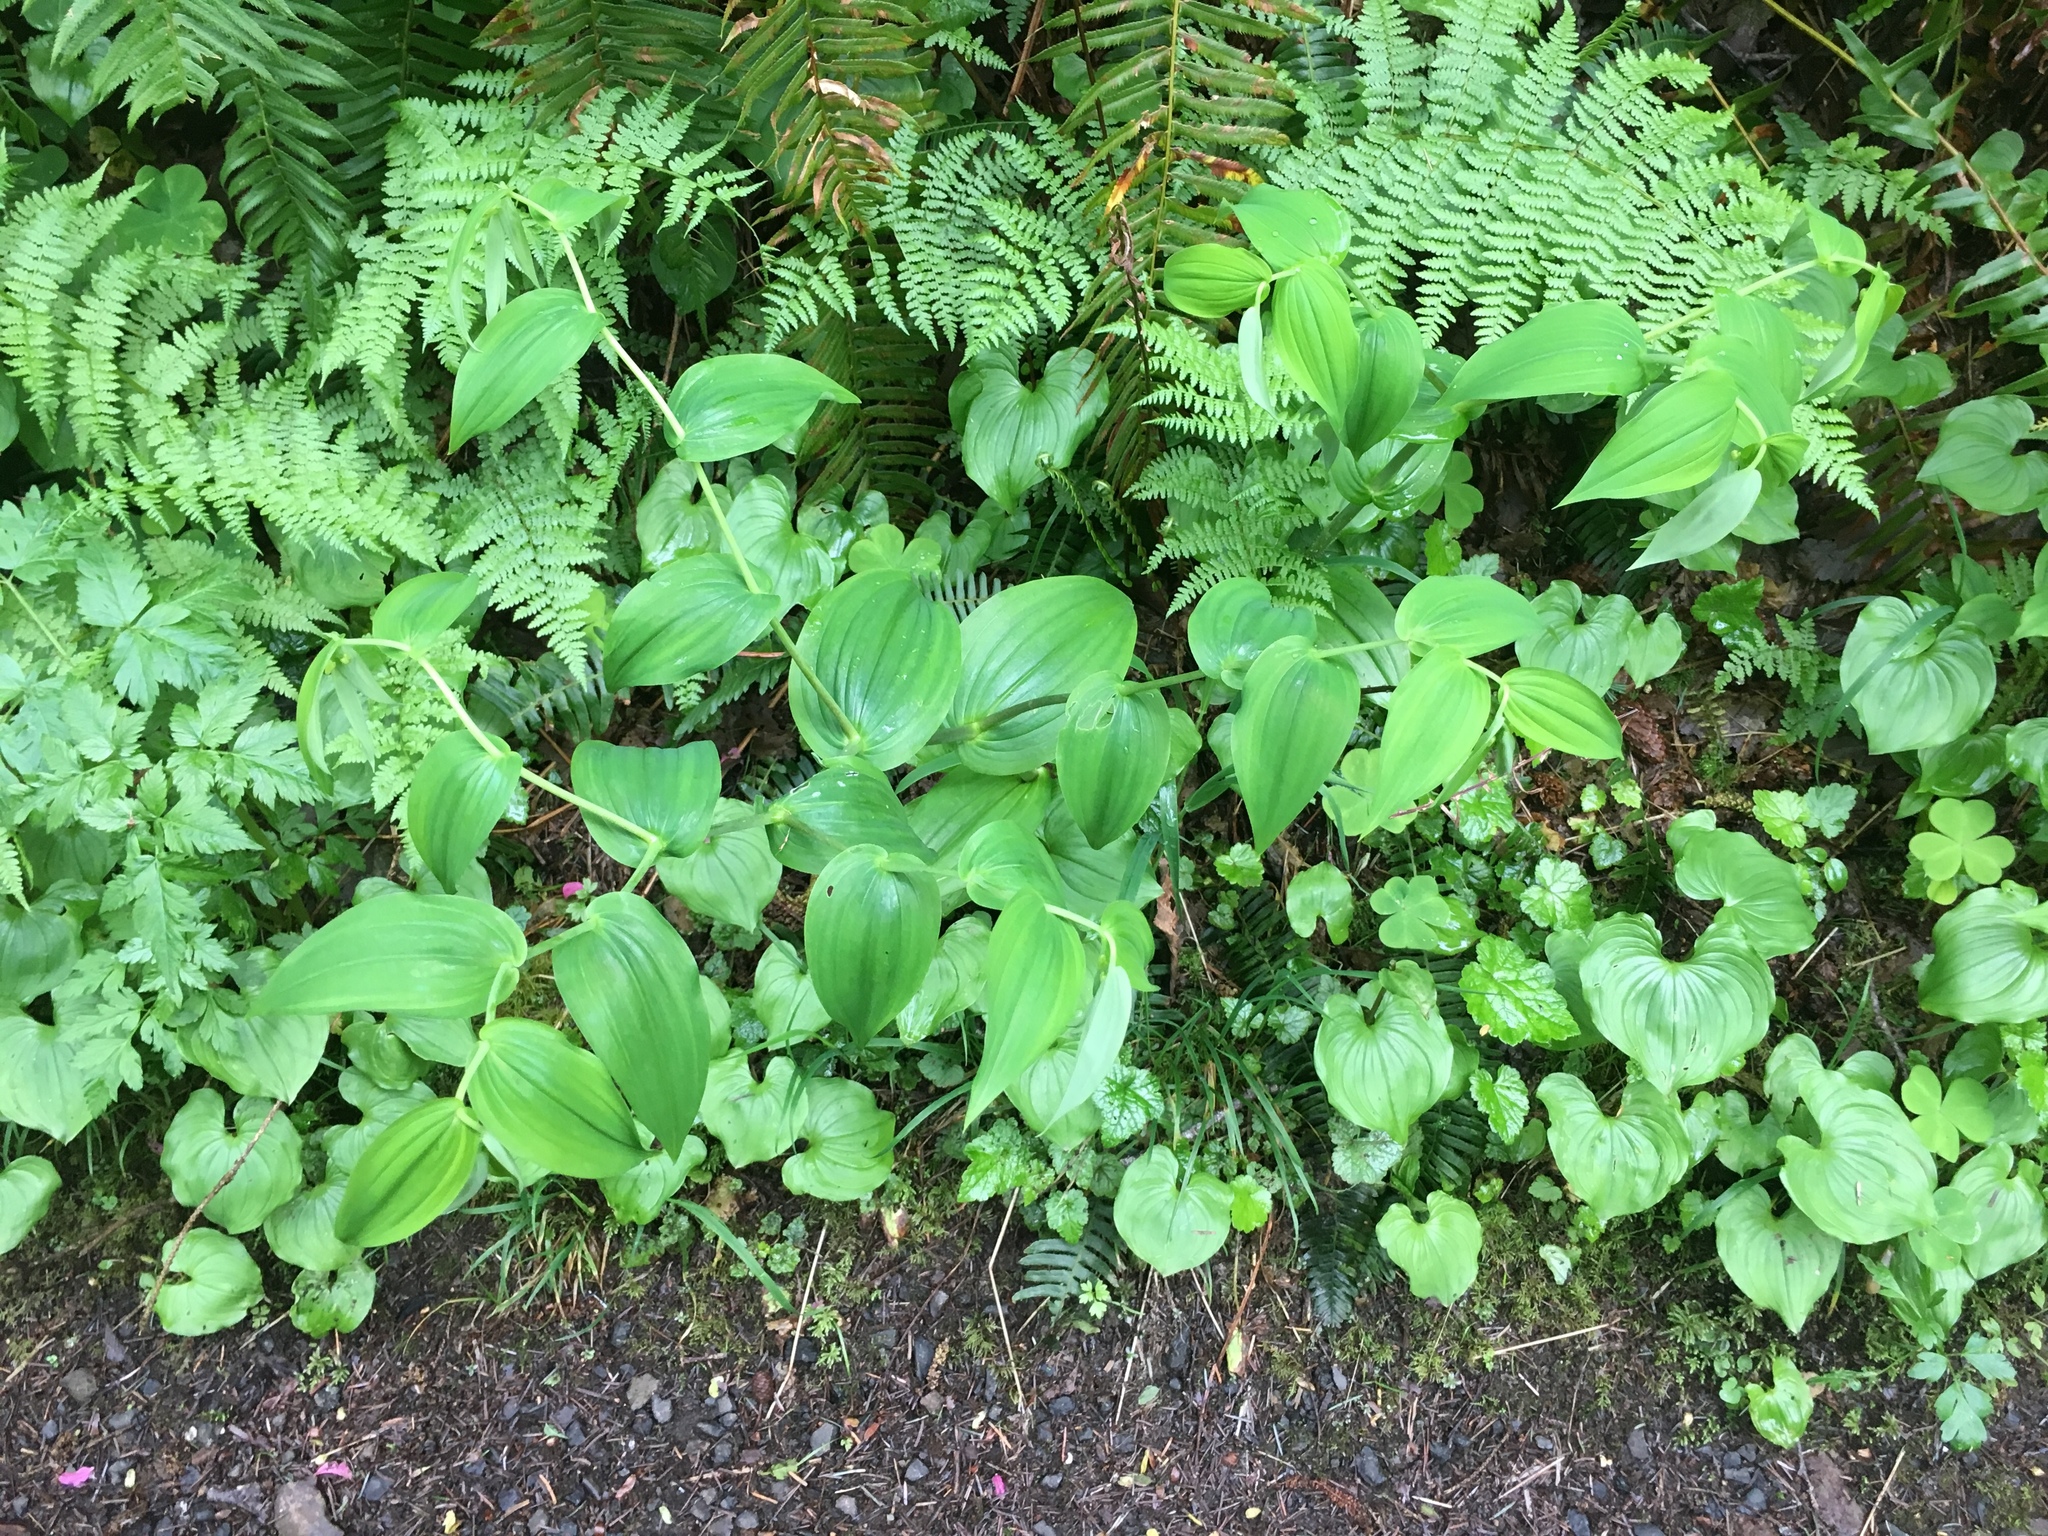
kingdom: Plantae
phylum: Tracheophyta
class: Liliopsida
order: Liliales
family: Liliaceae
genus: Streptopus
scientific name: Streptopus amplexifolius
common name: Clasp twisted stalk
